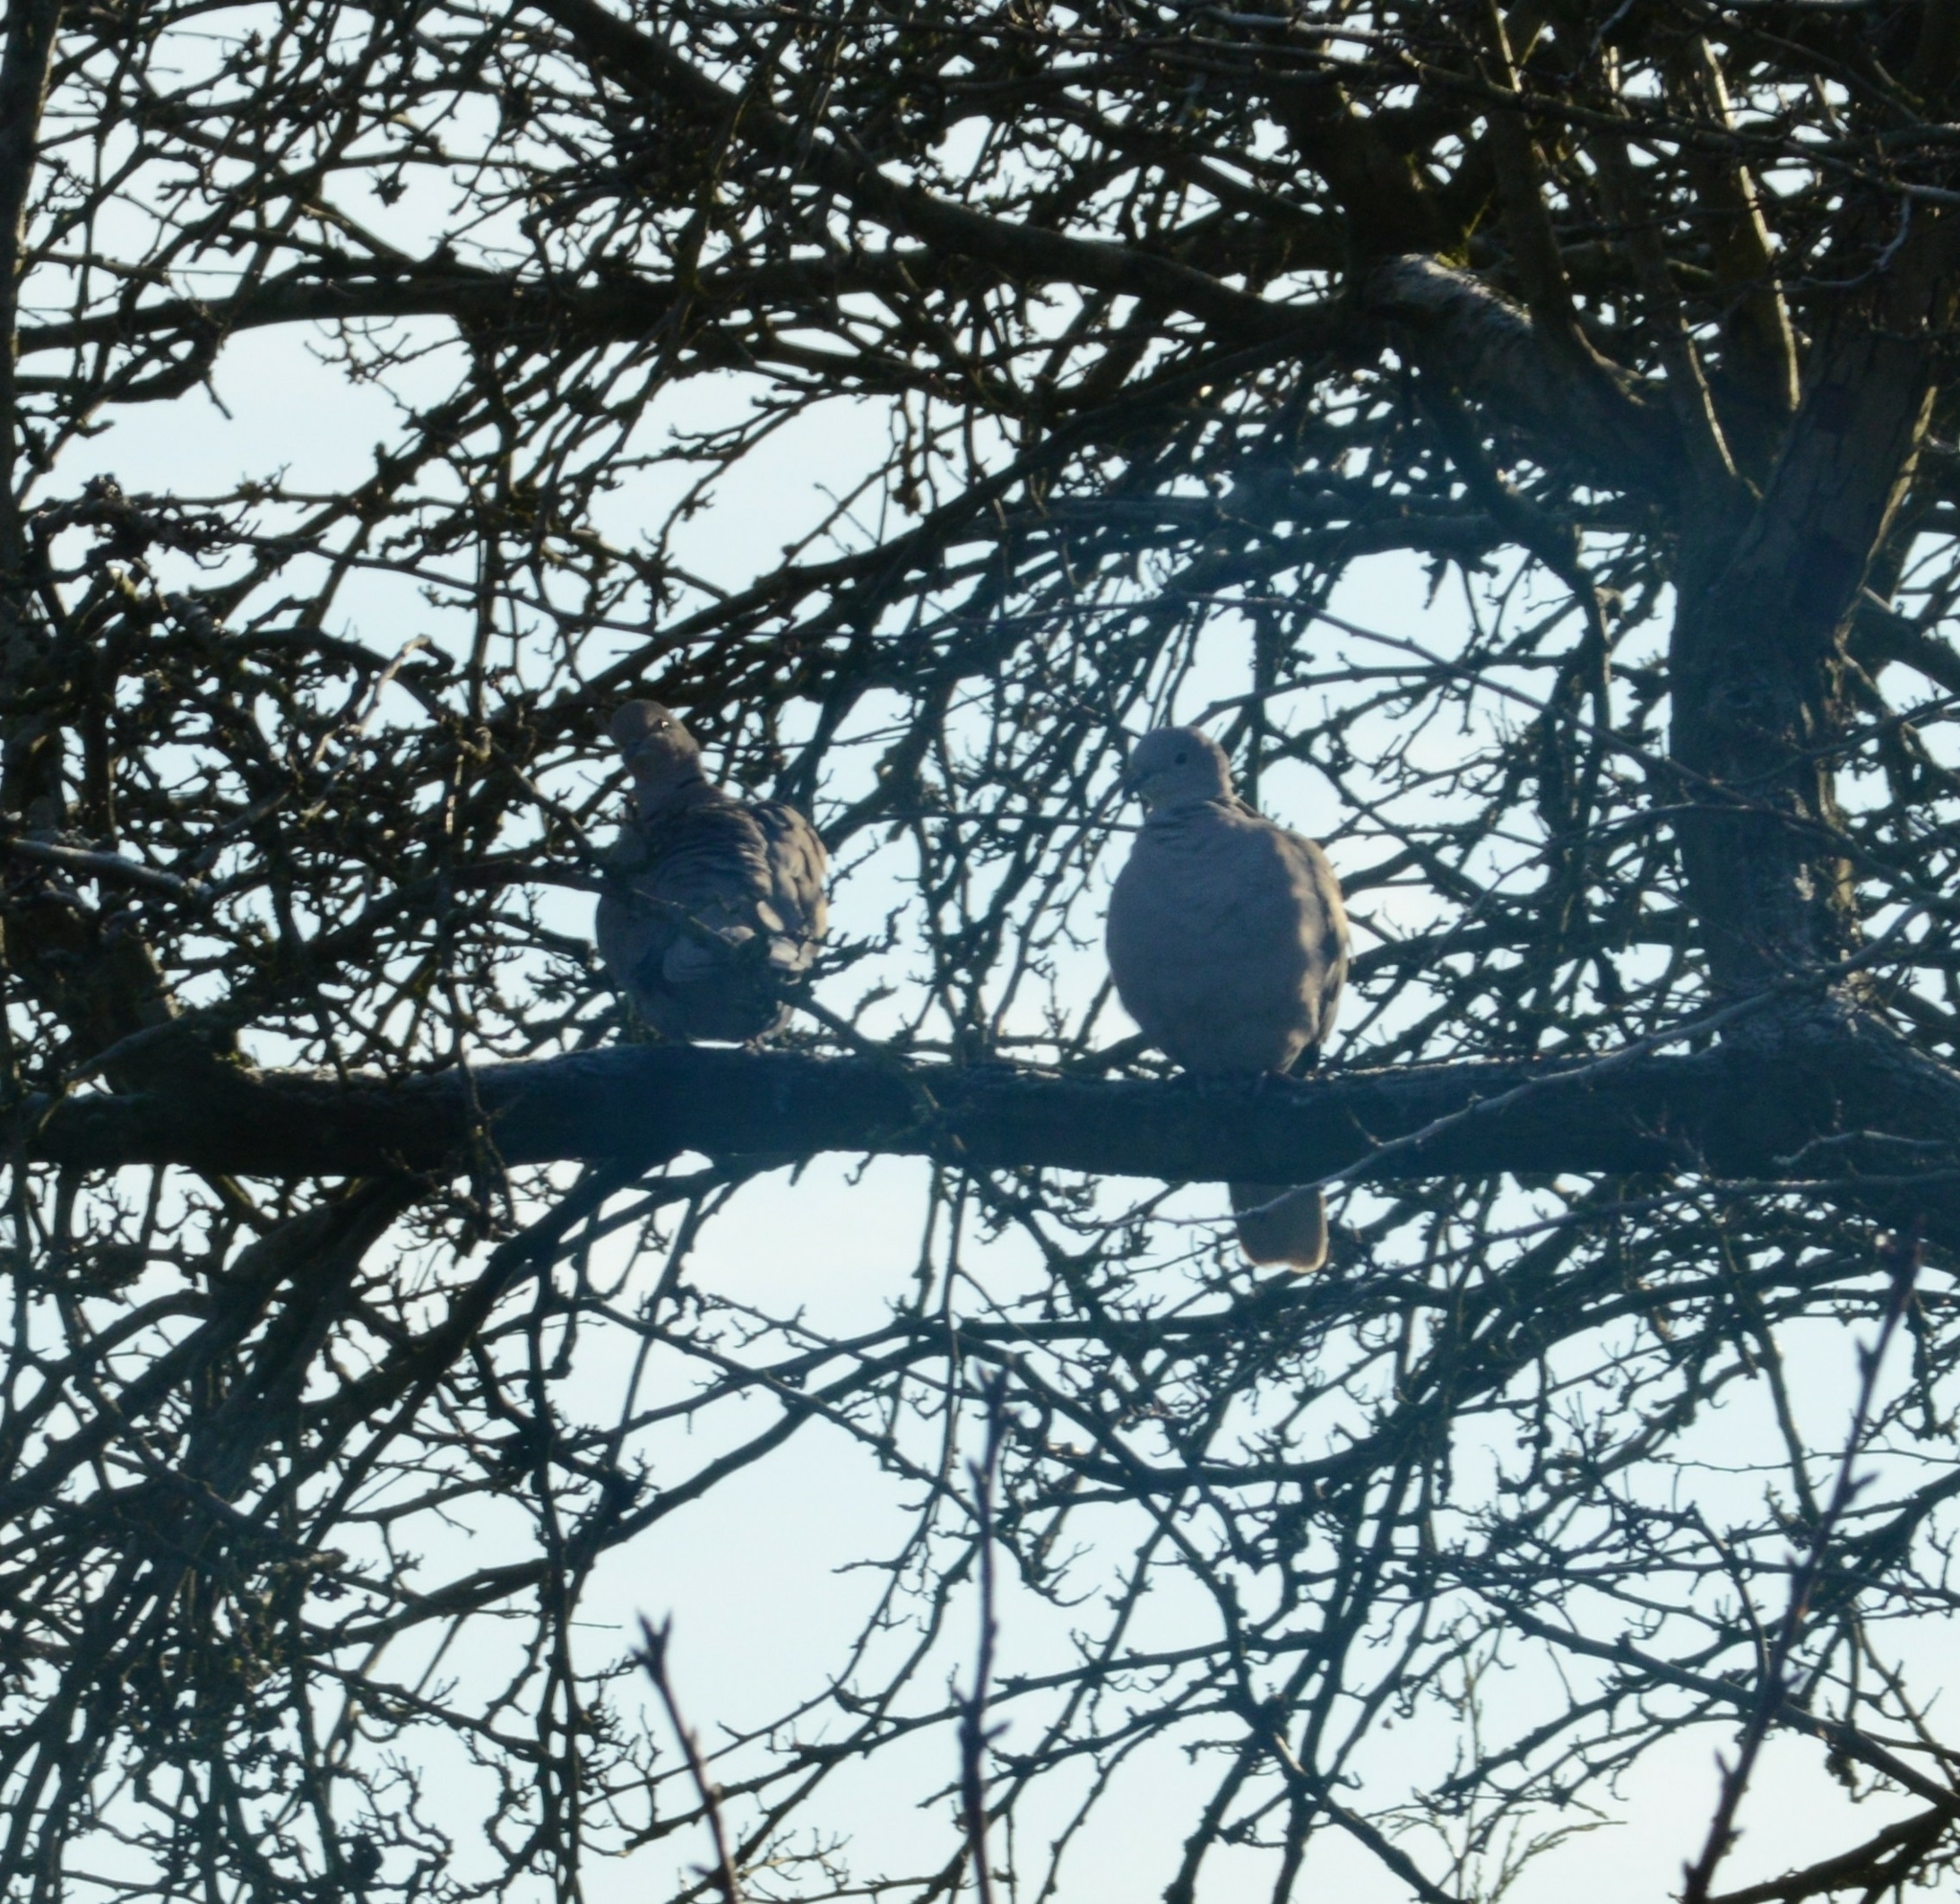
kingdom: Animalia
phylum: Chordata
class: Aves
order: Columbiformes
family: Columbidae
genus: Streptopelia
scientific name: Streptopelia decaocto
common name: Eurasian collared dove
